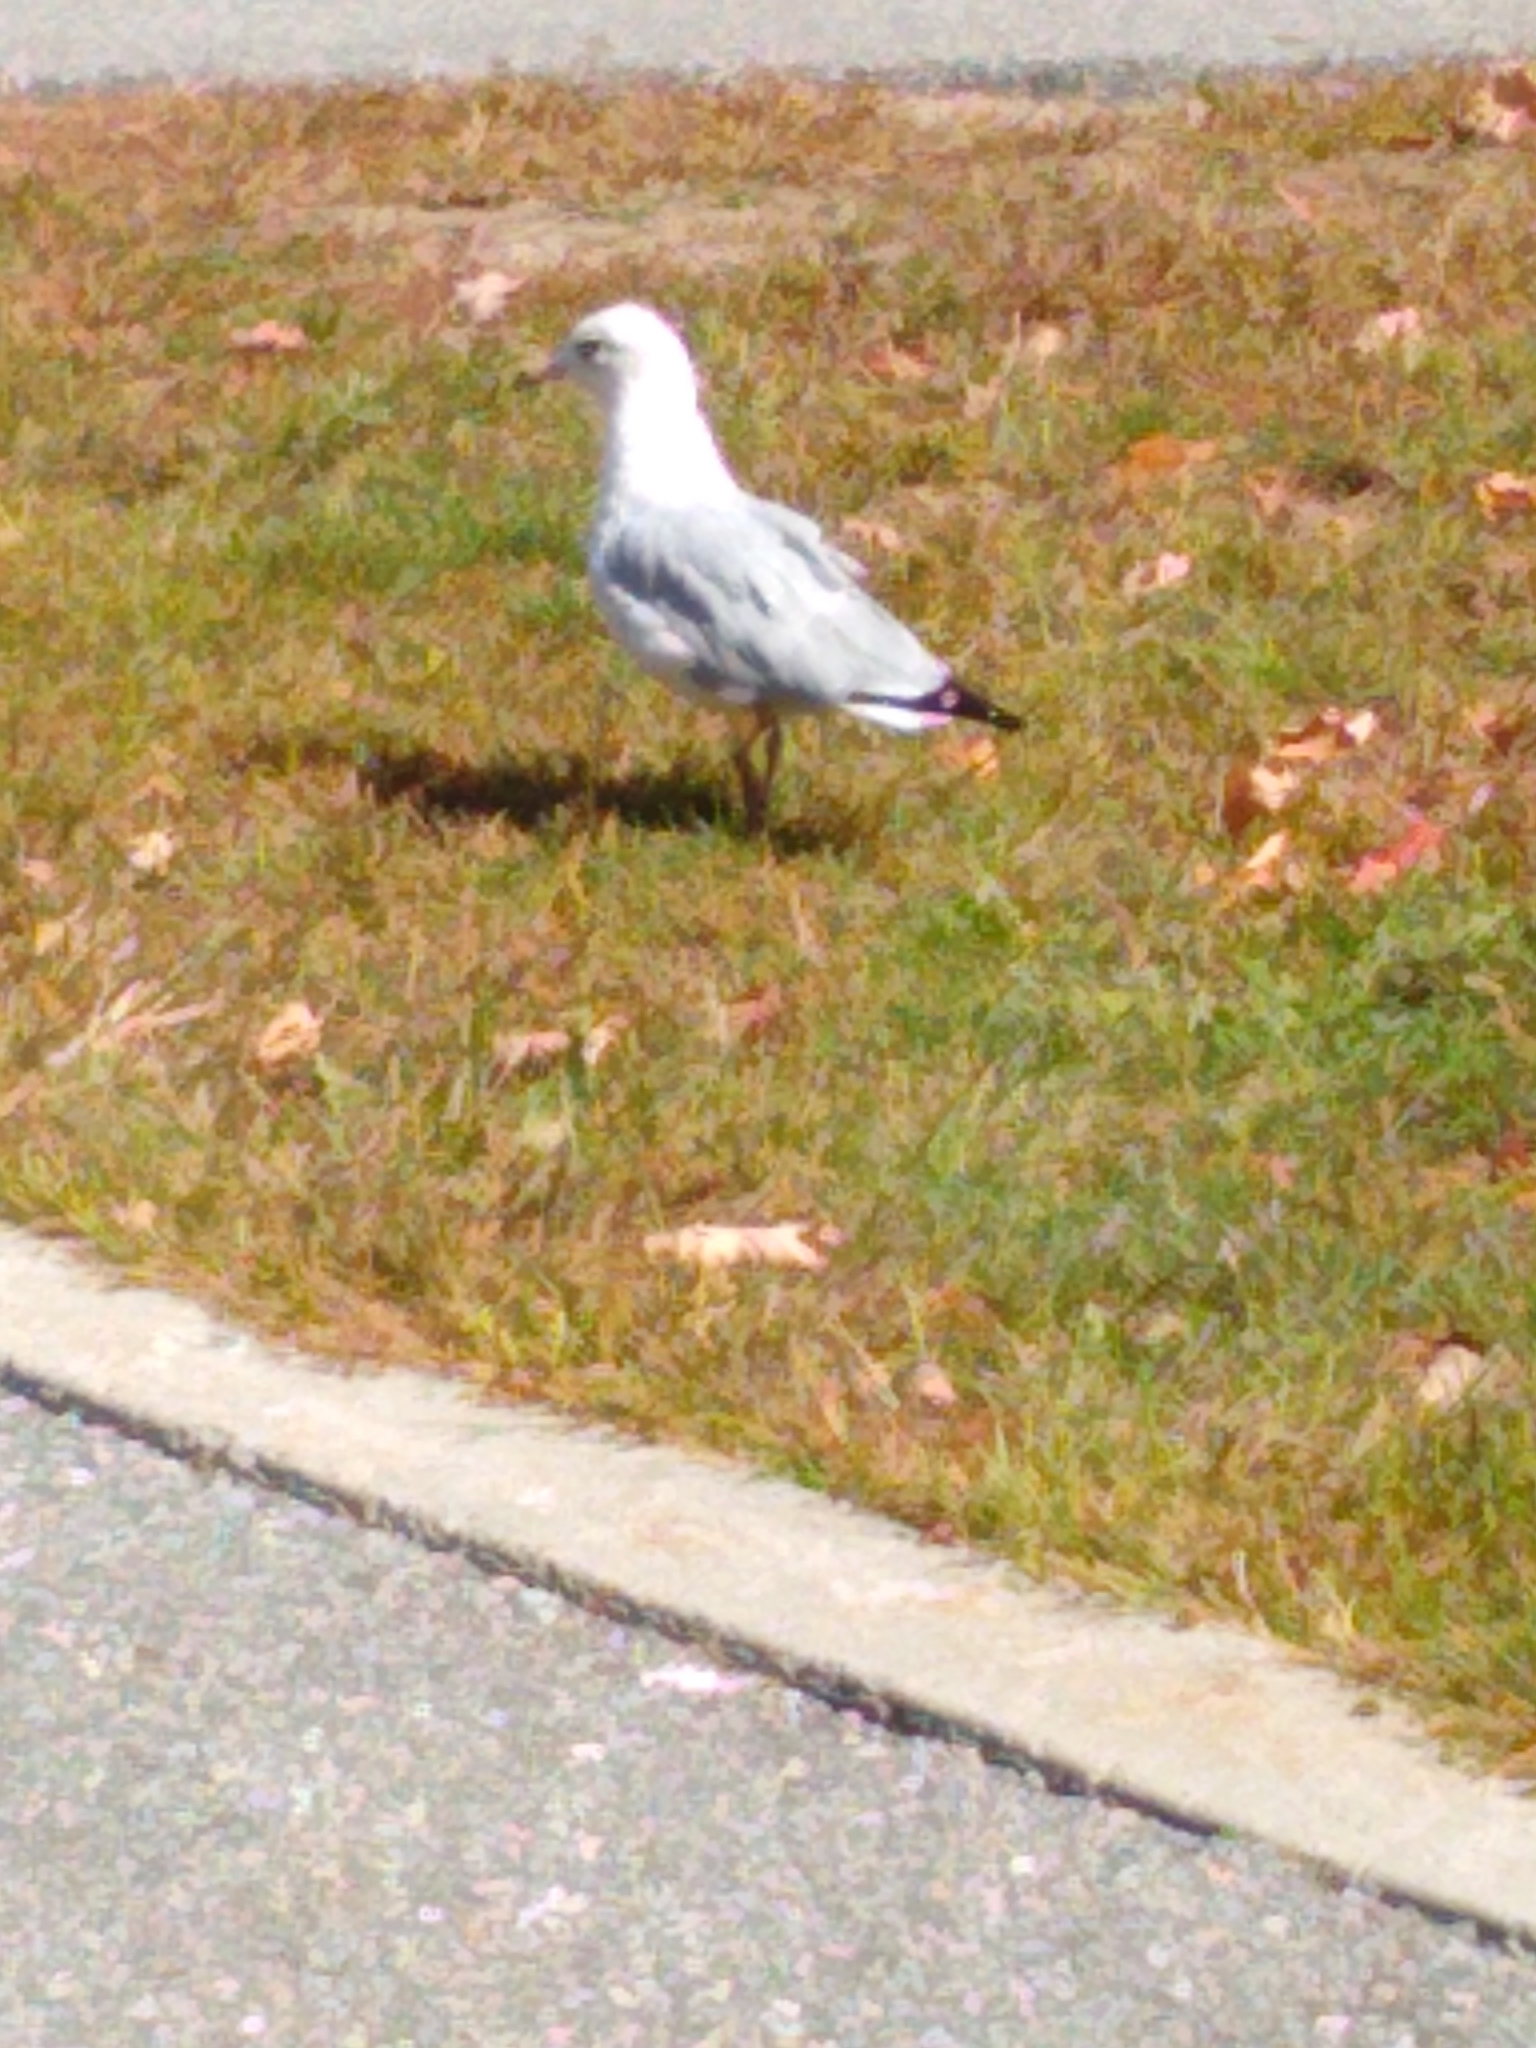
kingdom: Animalia
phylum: Chordata
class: Aves
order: Charadriiformes
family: Laridae
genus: Larus
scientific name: Larus delawarensis
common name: Ring-billed gull
